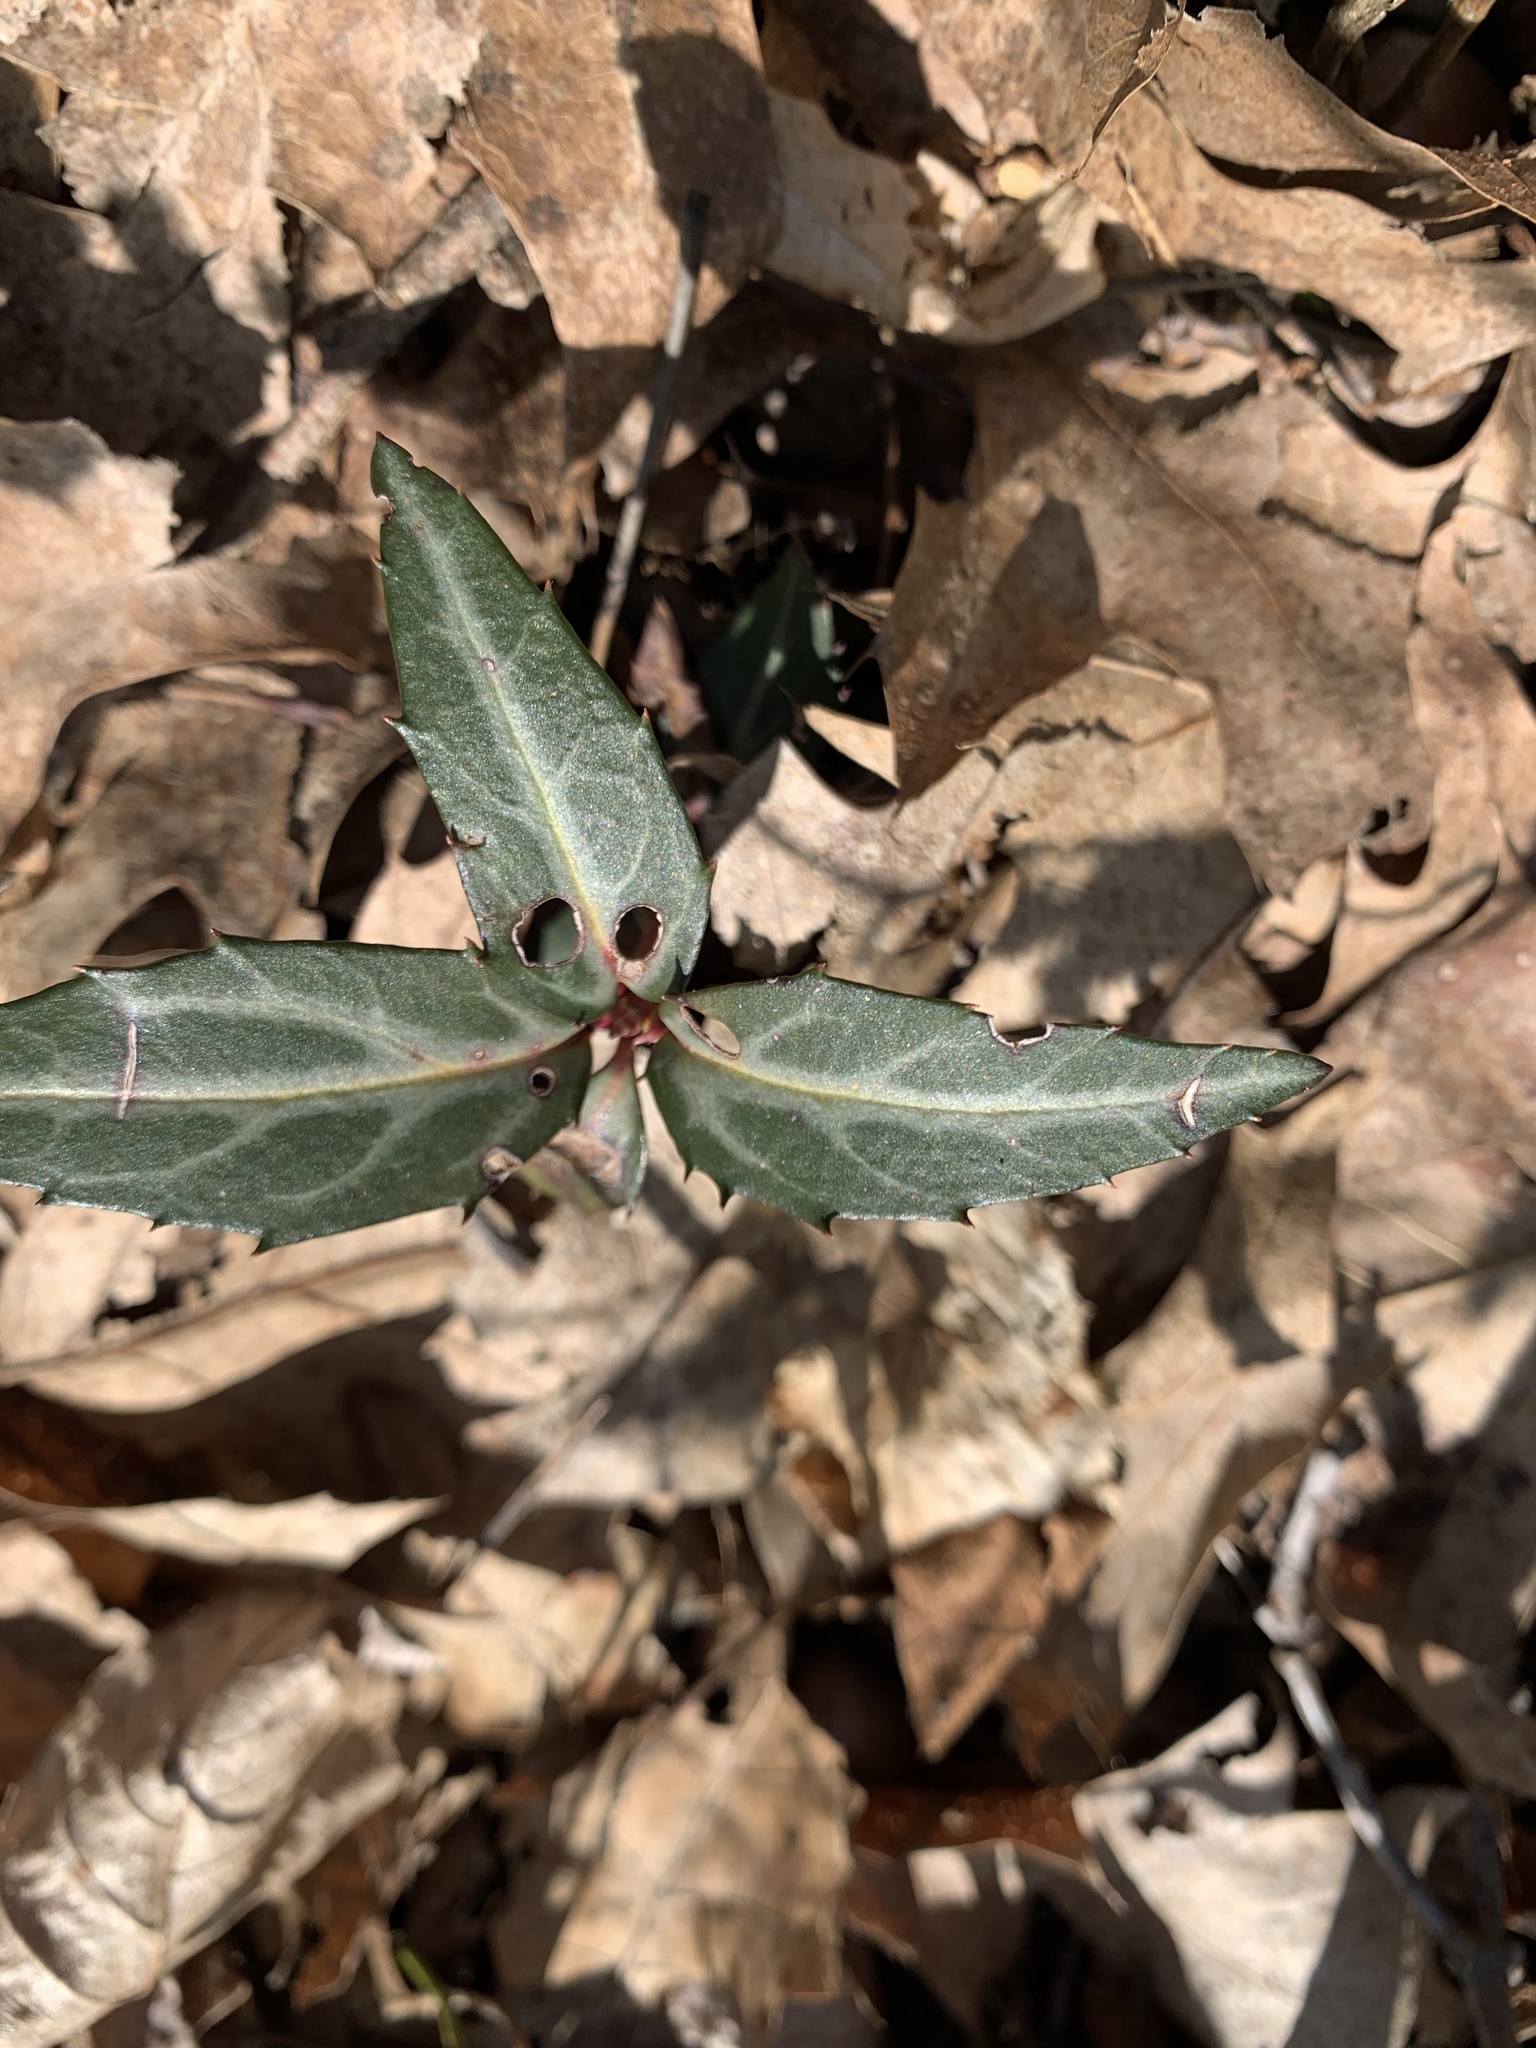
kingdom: Plantae
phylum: Tracheophyta
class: Magnoliopsida
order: Ericales
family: Ericaceae
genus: Chimaphila
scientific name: Chimaphila maculata
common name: Spotted pipsissewa
